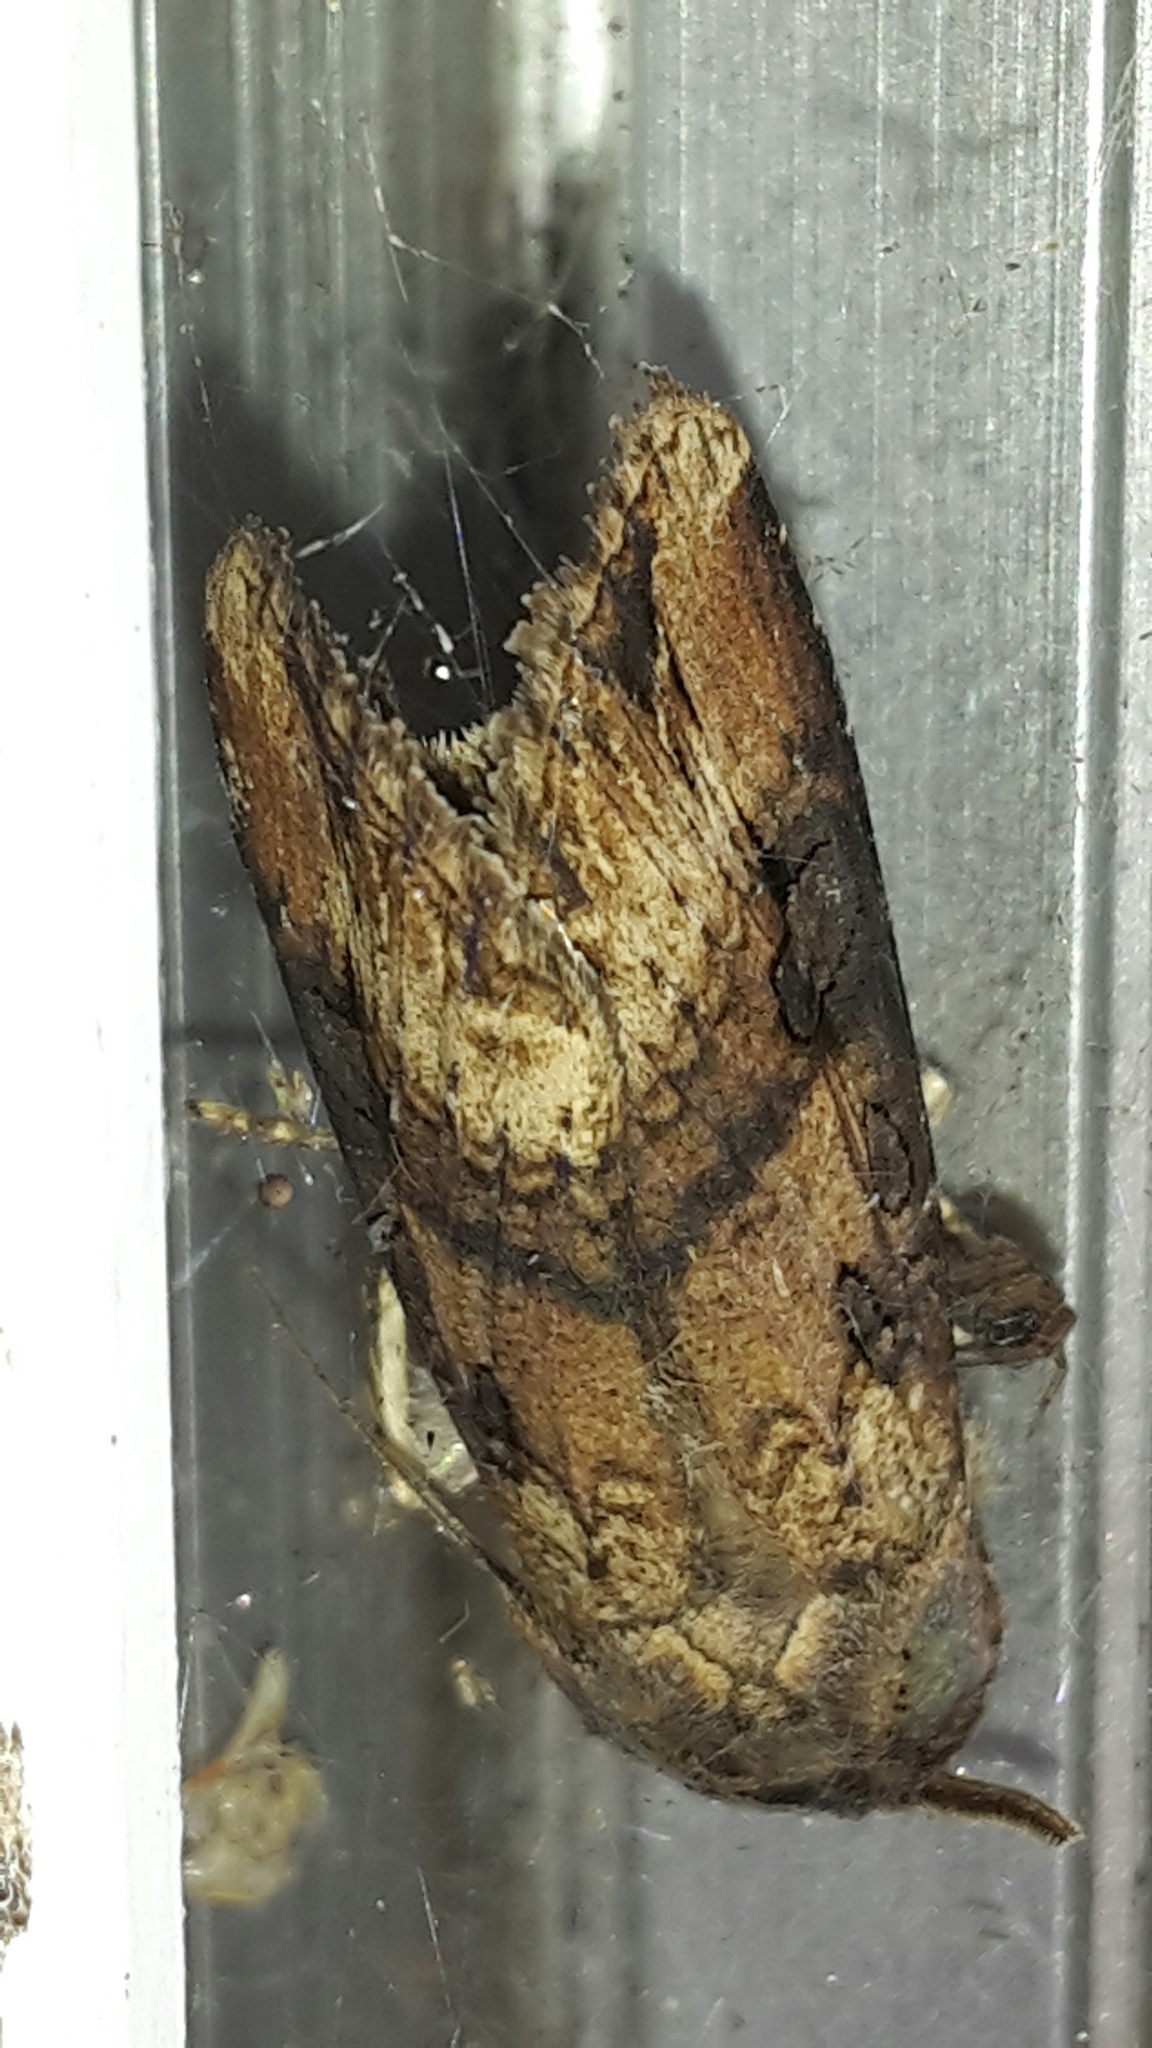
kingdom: Animalia
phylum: Arthropoda
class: Insecta
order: Lepidoptera
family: Noctuidae
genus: Agrotis
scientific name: Agrotis ipsilon
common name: Dark sword-grass
